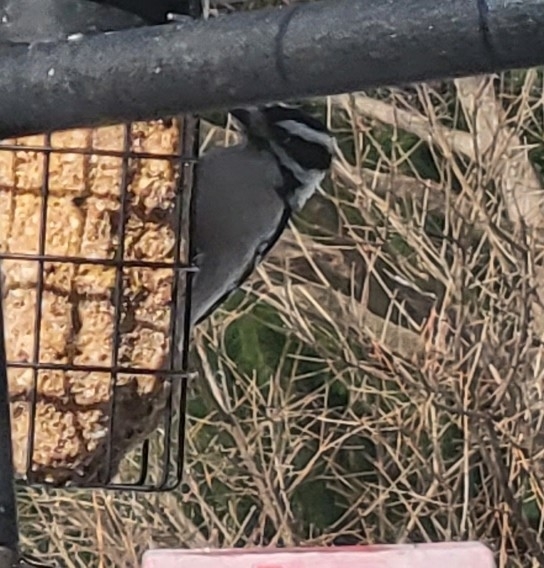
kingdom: Animalia
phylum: Chordata
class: Aves
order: Piciformes
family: Picidae
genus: Dryobates
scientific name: Dryobates pubescens
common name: Downy woodpecker
